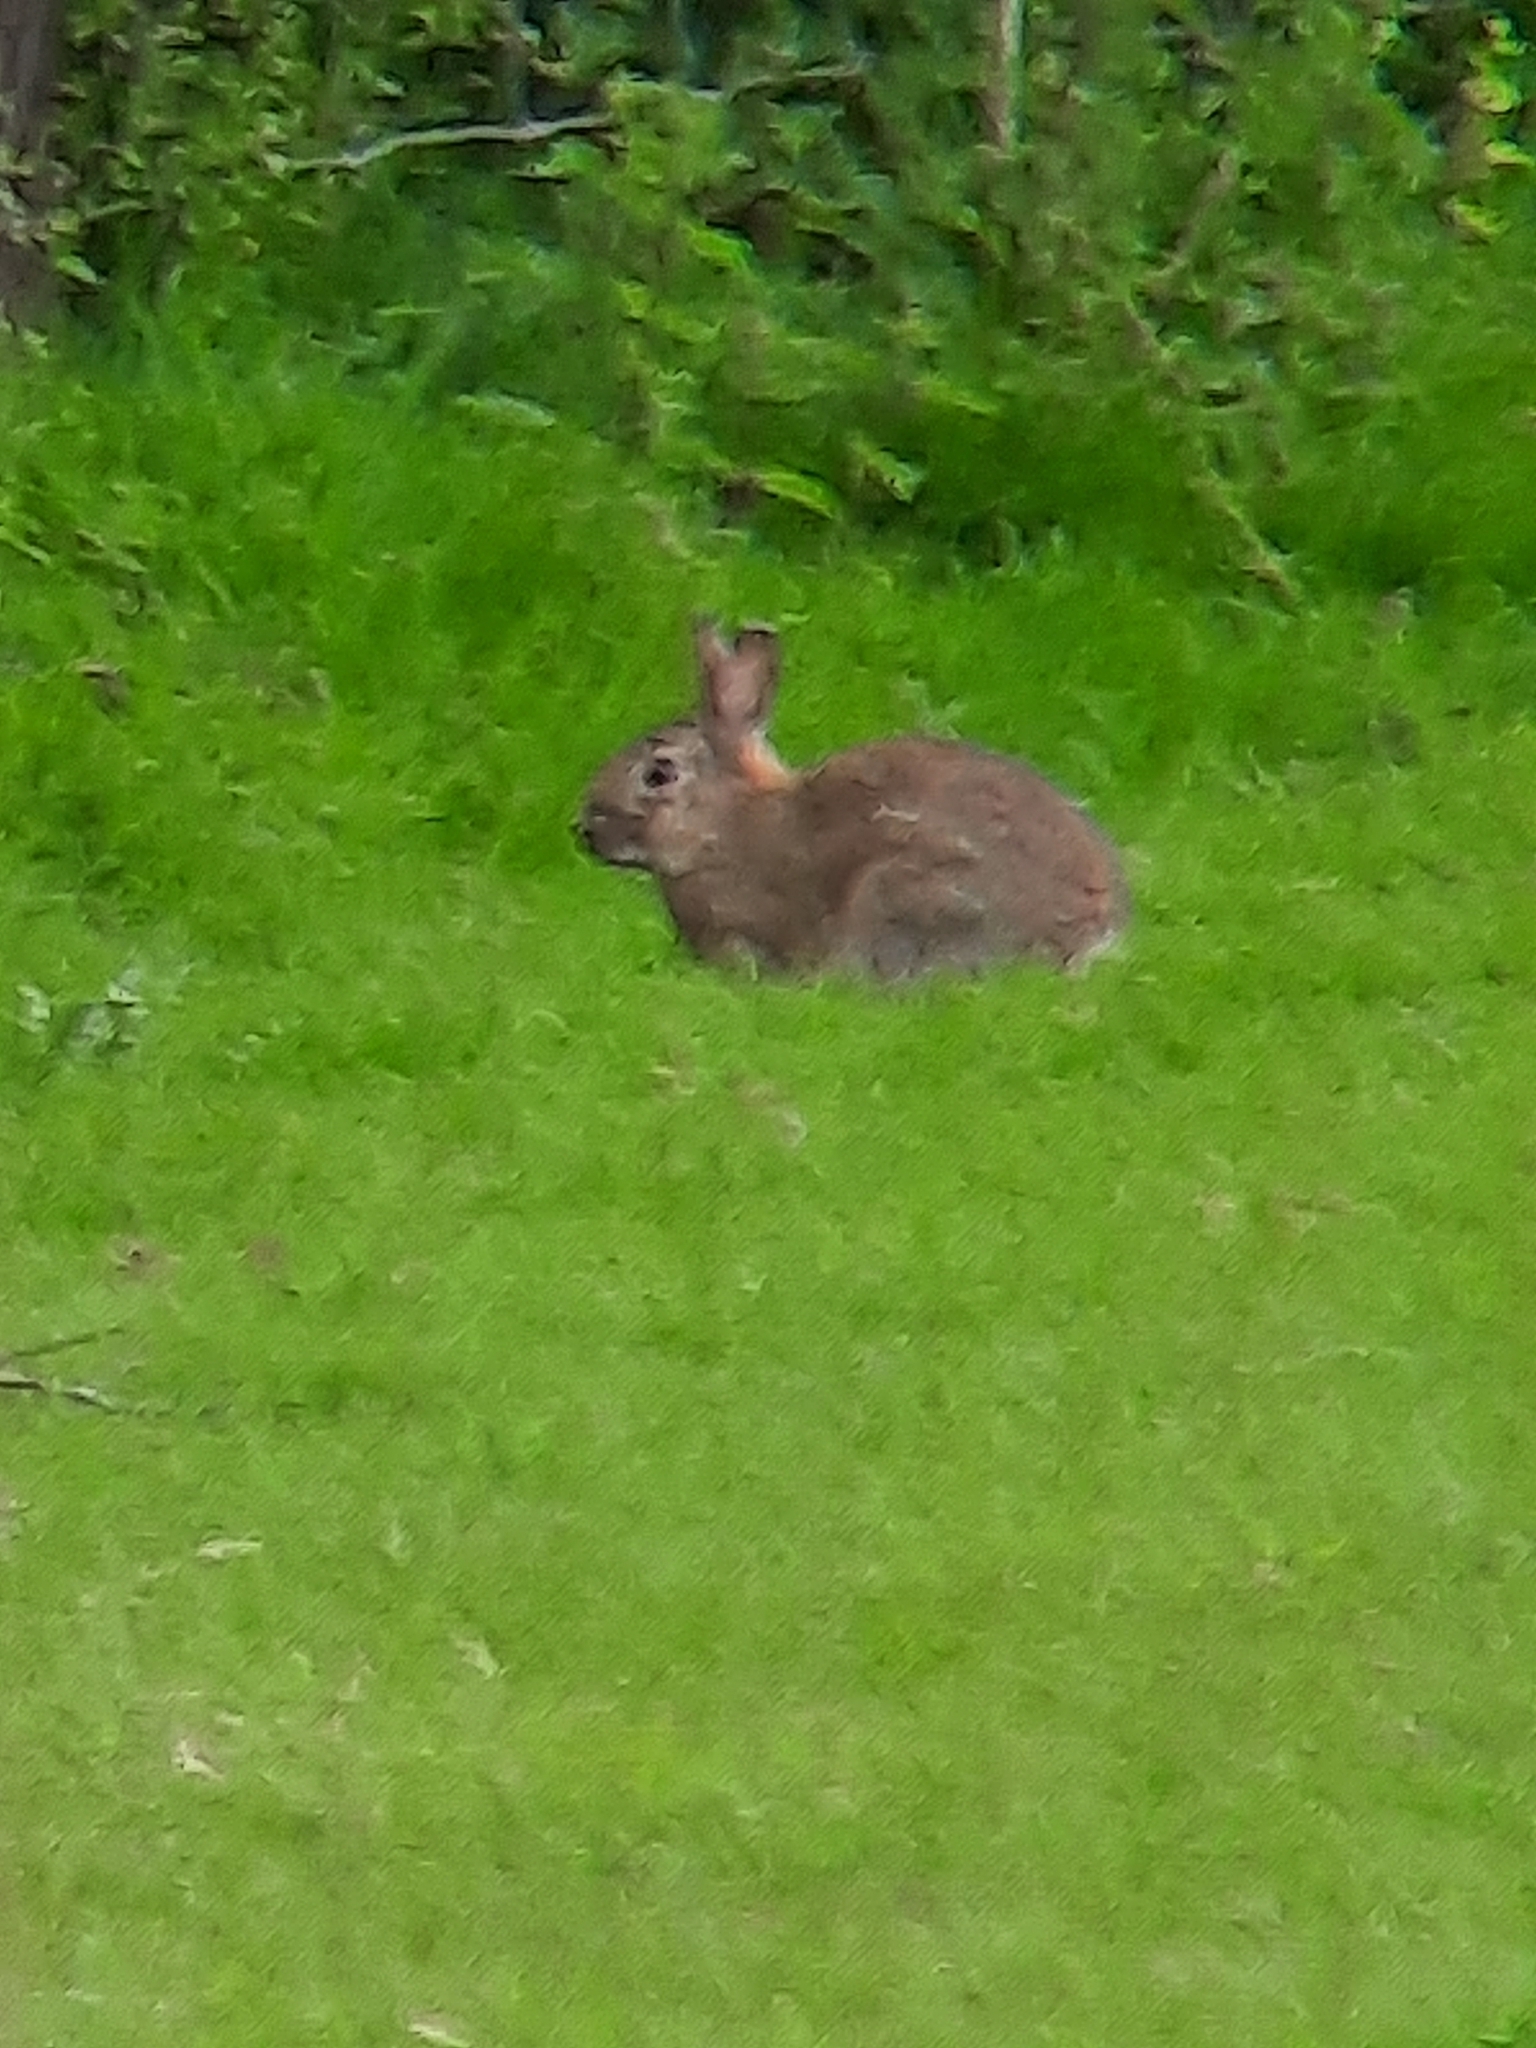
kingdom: Animalia
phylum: Chordata
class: Mammalia
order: Lagomorpha
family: Leporidae
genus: Oryctolagus
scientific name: Oryctolagus cuniculus
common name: European rabbit
